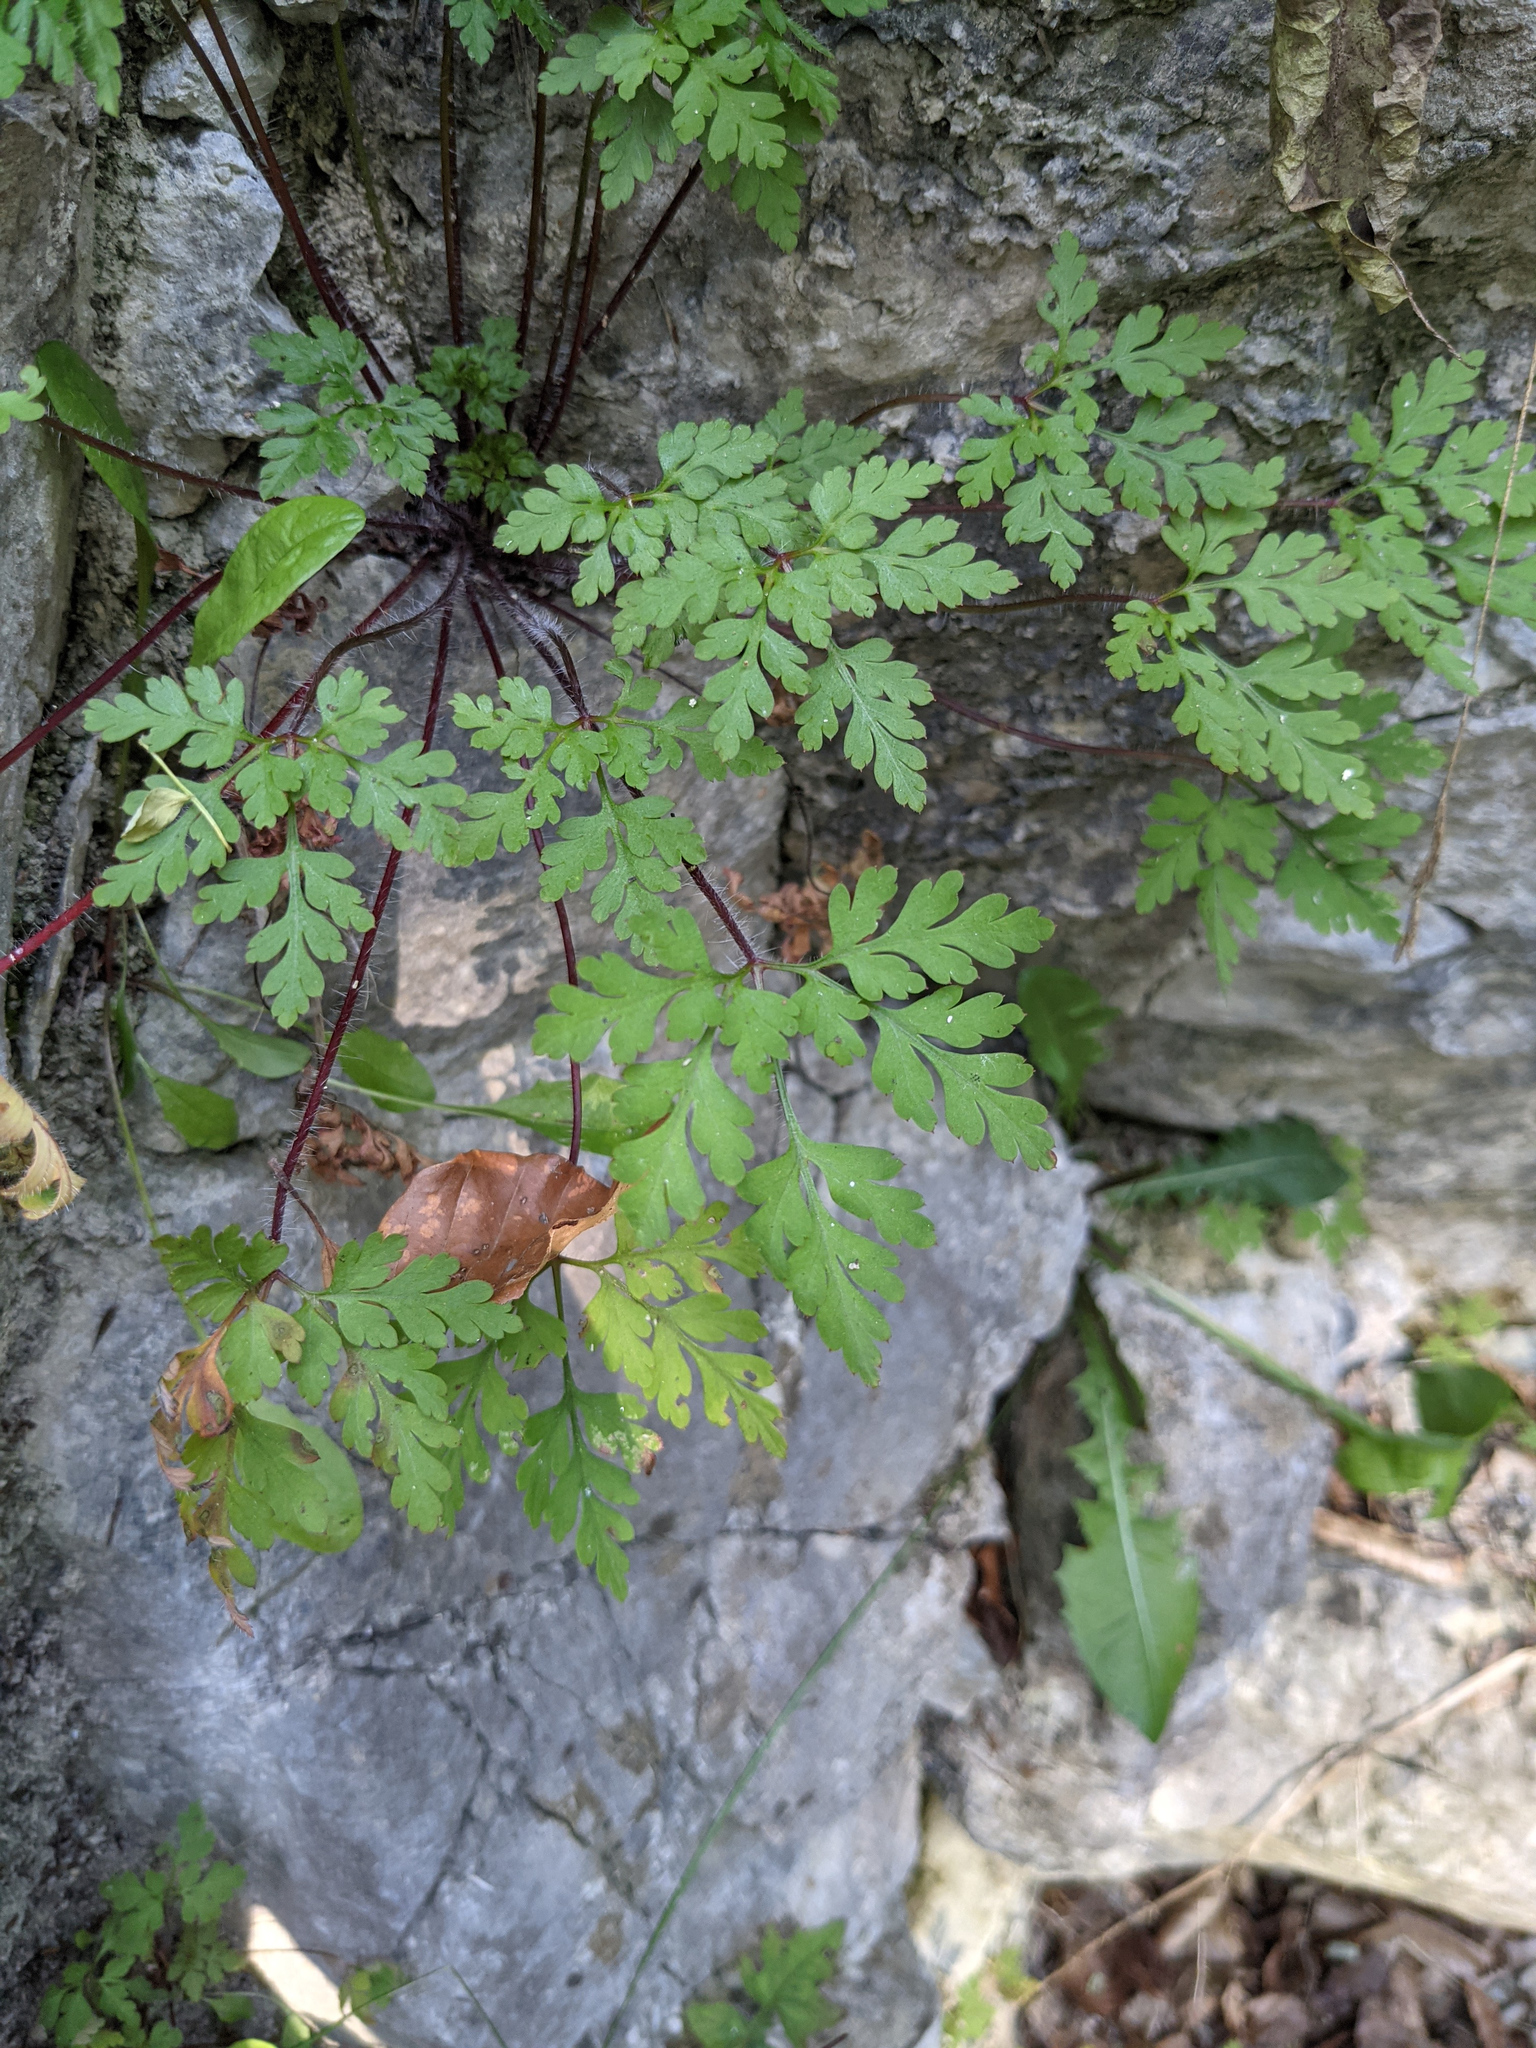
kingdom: Plantae
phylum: Tracheophyta
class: Magnoliopsida
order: Geraniales
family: Geraniaceae
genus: Geranium
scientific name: Geranium robertianum
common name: Herb-robert
